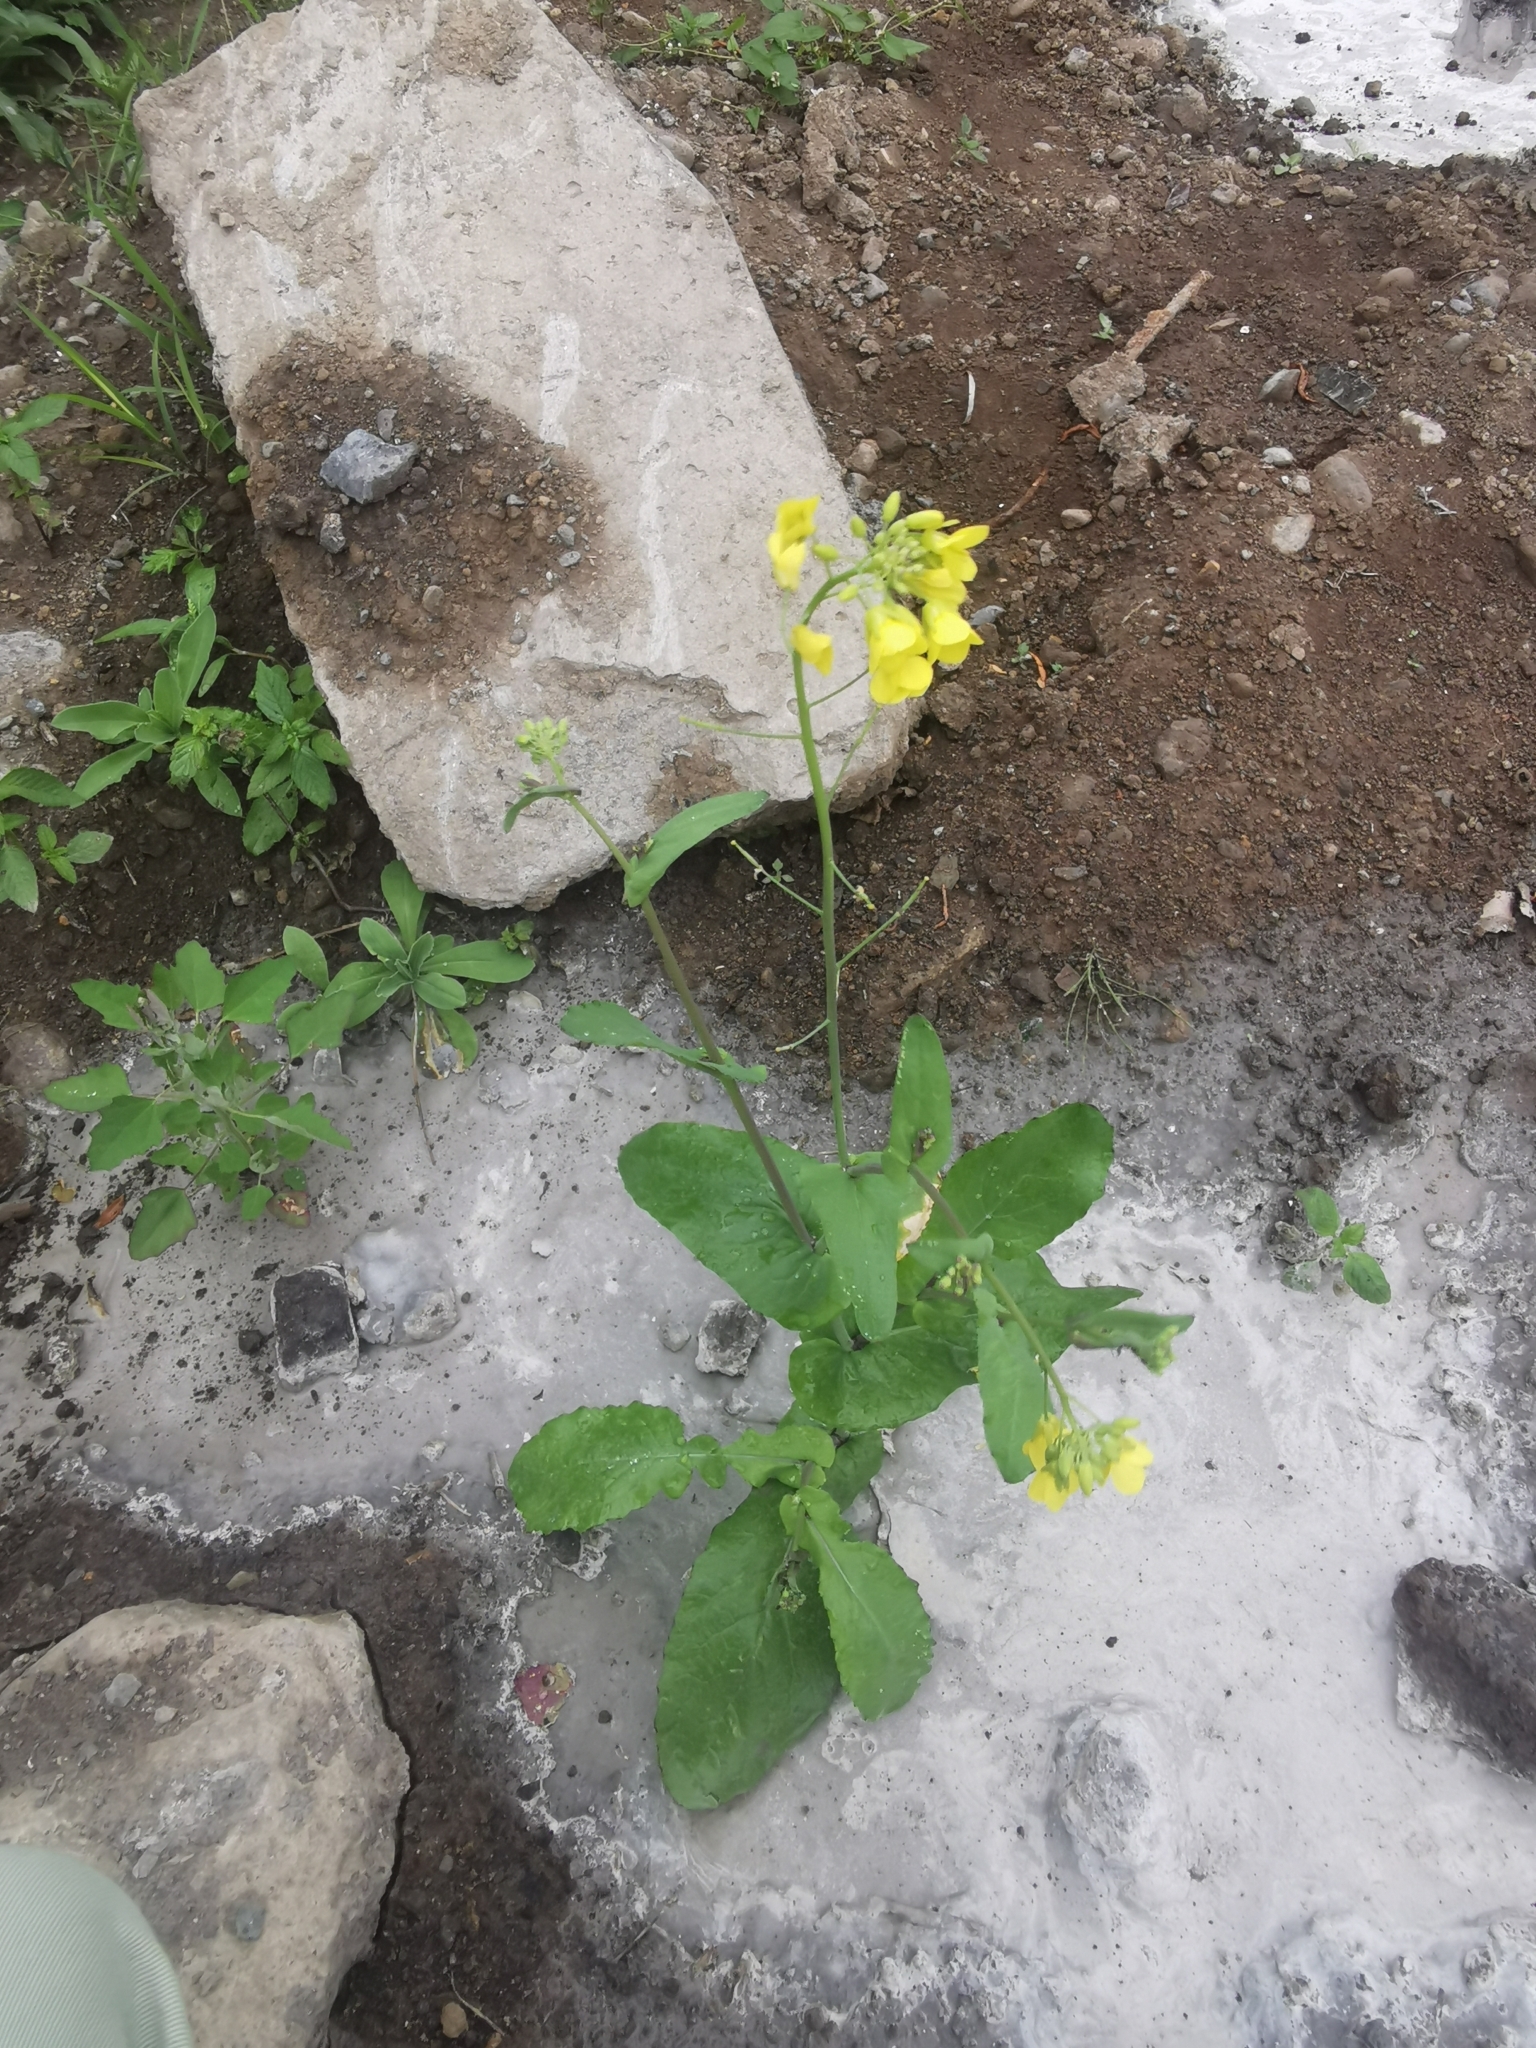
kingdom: Plantae
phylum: Tracheophyta
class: Magnoliopsida
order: Brassicales
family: Brassicaceae
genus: Brassica
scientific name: Brassica rapa
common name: Field mustard
